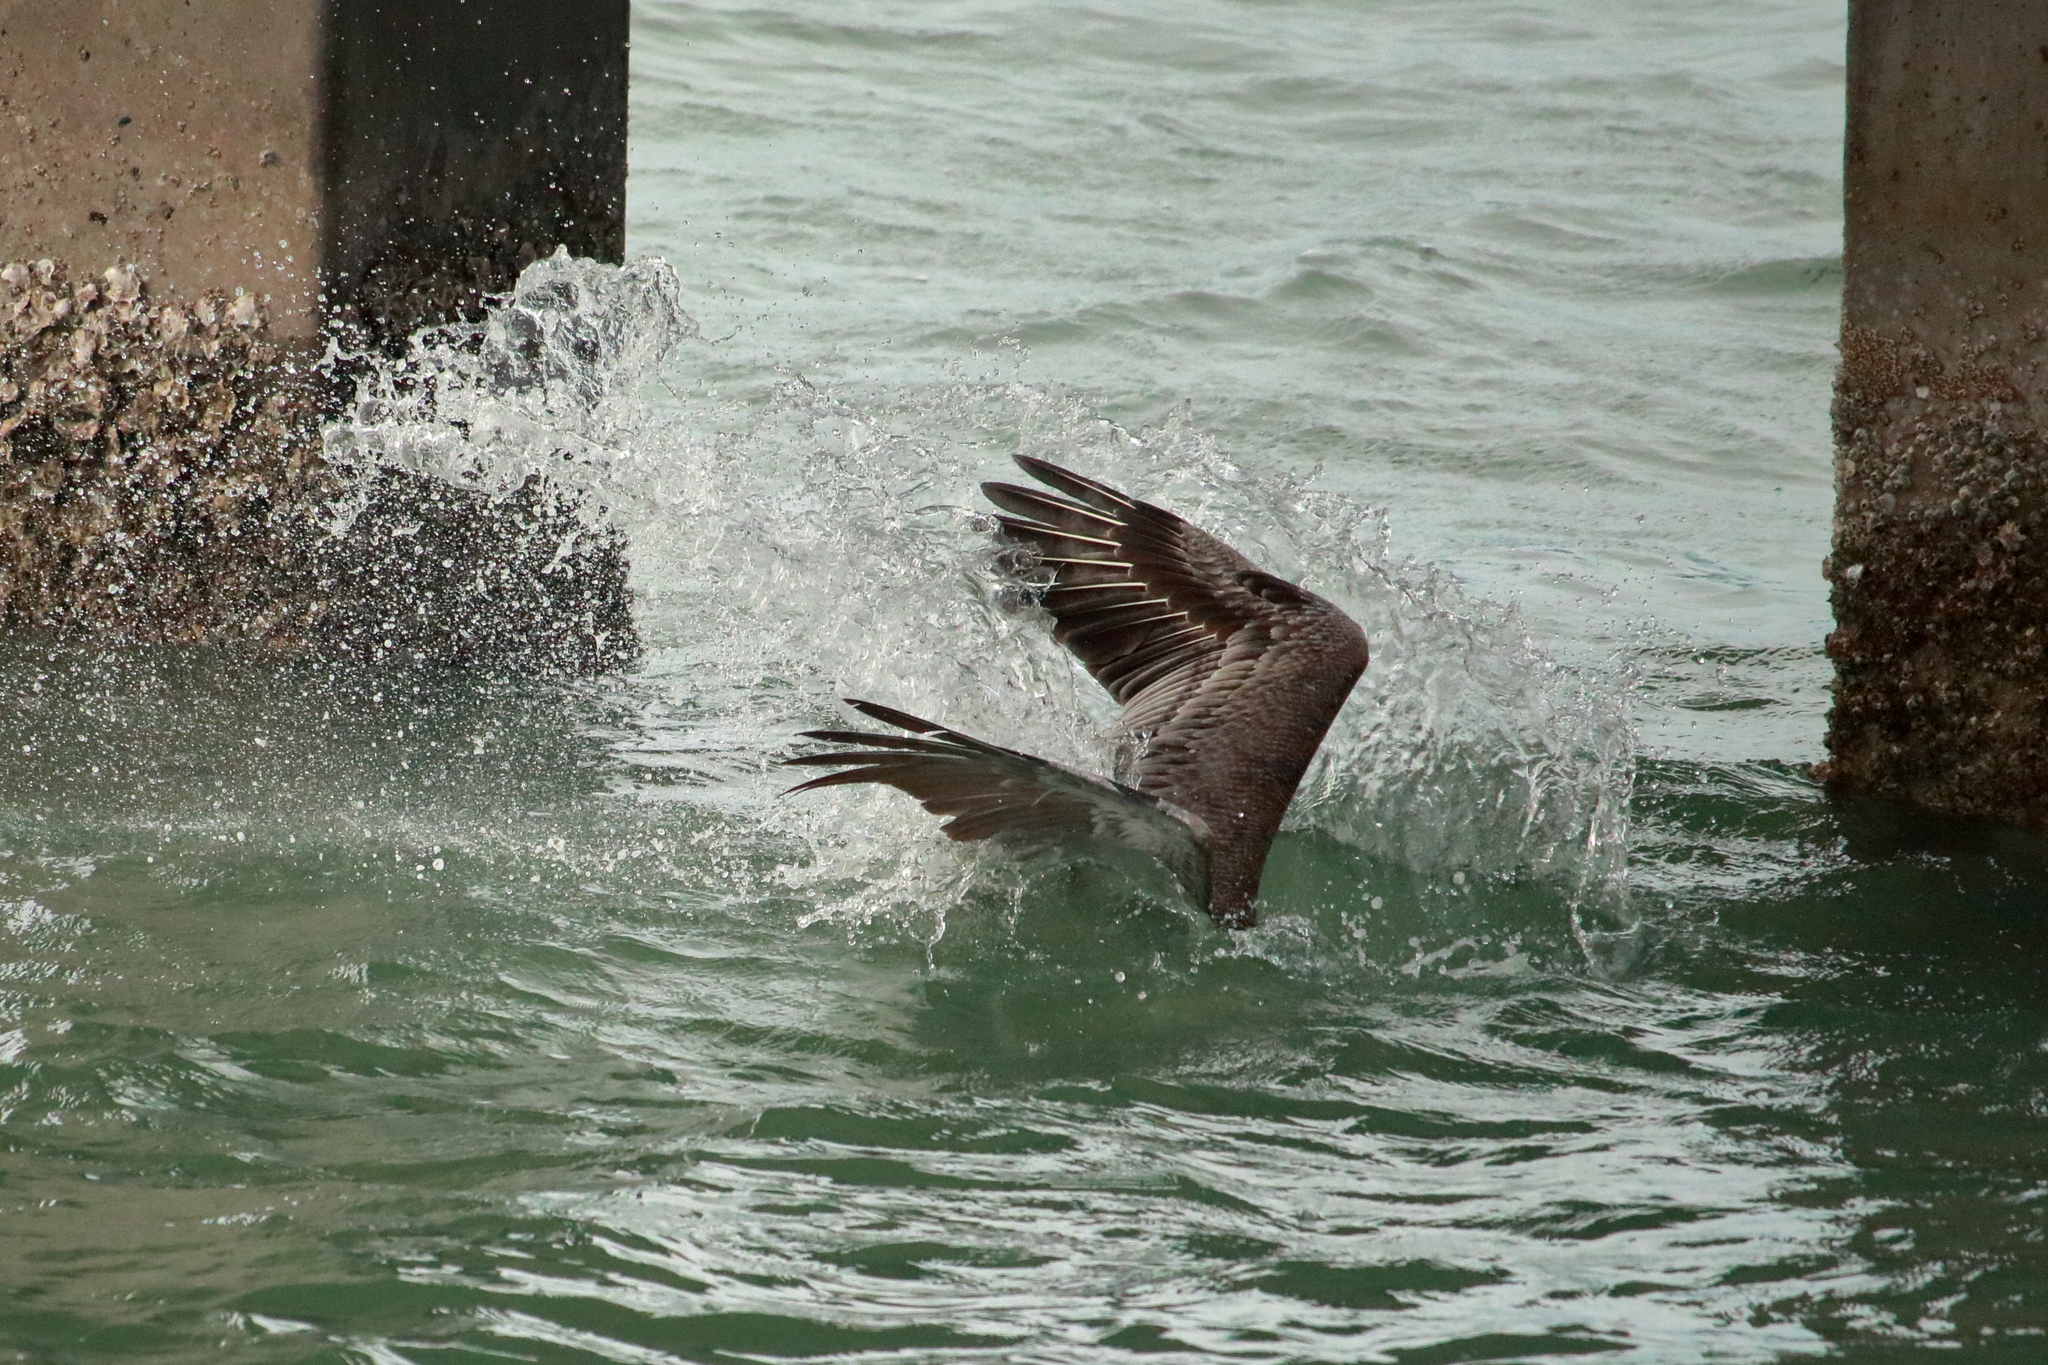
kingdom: Animalia
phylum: Chordata
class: Aves
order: Pelecaniformes
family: Pelecanidae
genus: Pelecanus
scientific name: Pelecanus occidentalis
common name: Brown pelican
